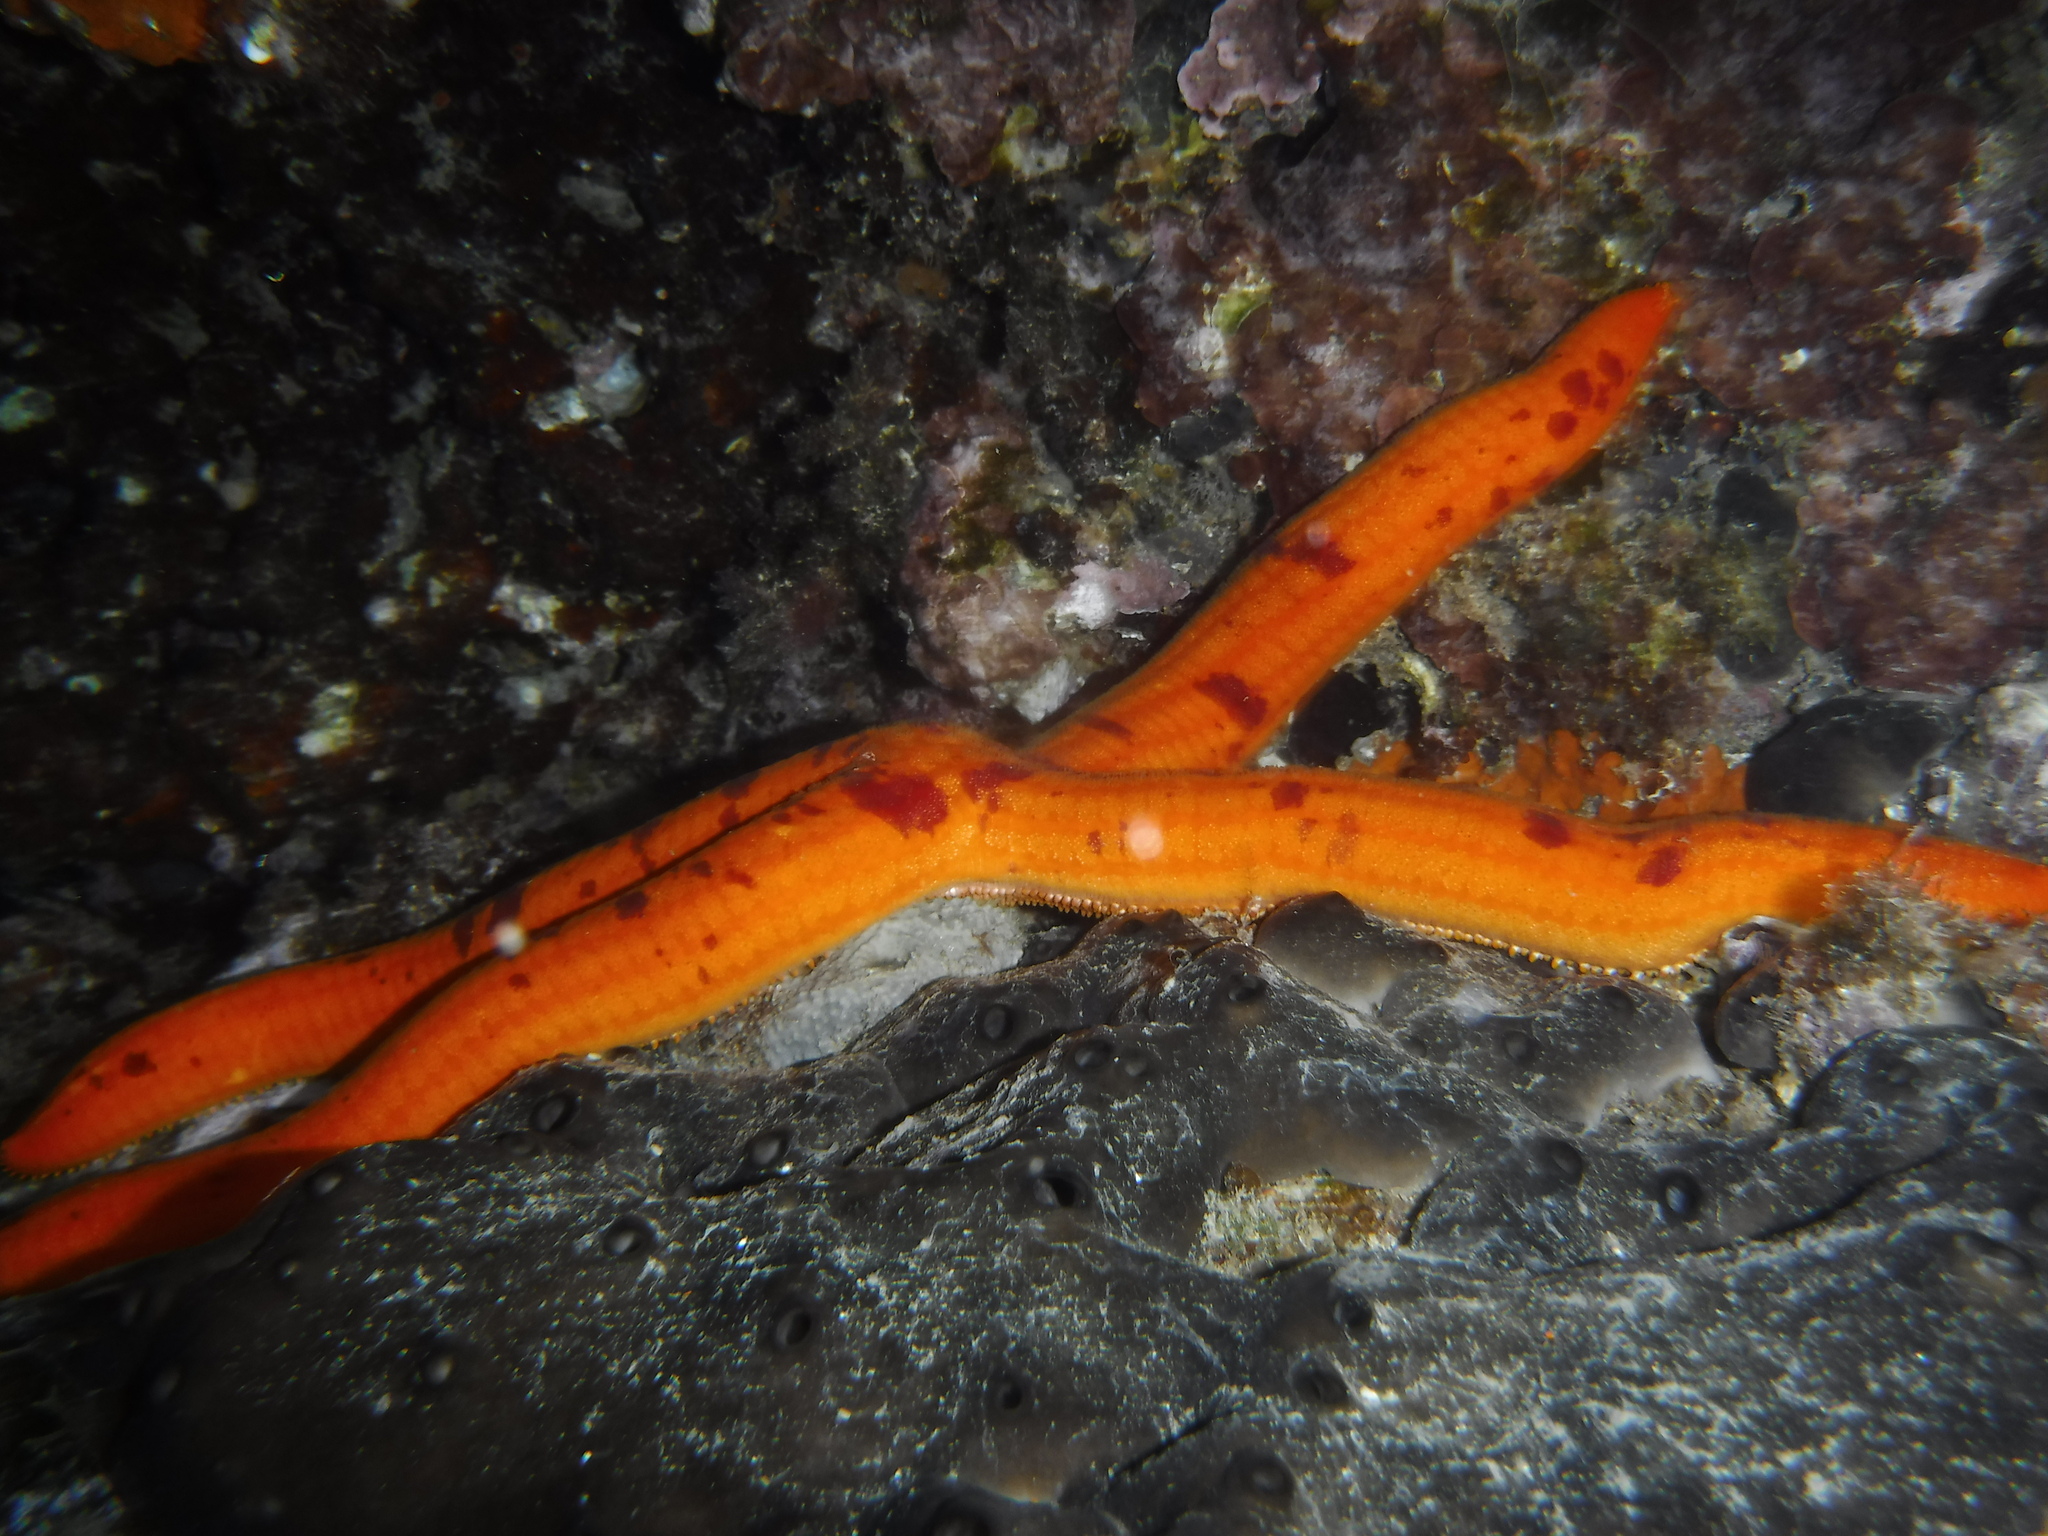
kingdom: Animalia
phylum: Echinodermata
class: Asteroidea
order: Valvatida
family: Ophidiasteridae
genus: Ophidiaster
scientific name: Ophidiaster ophidianus
